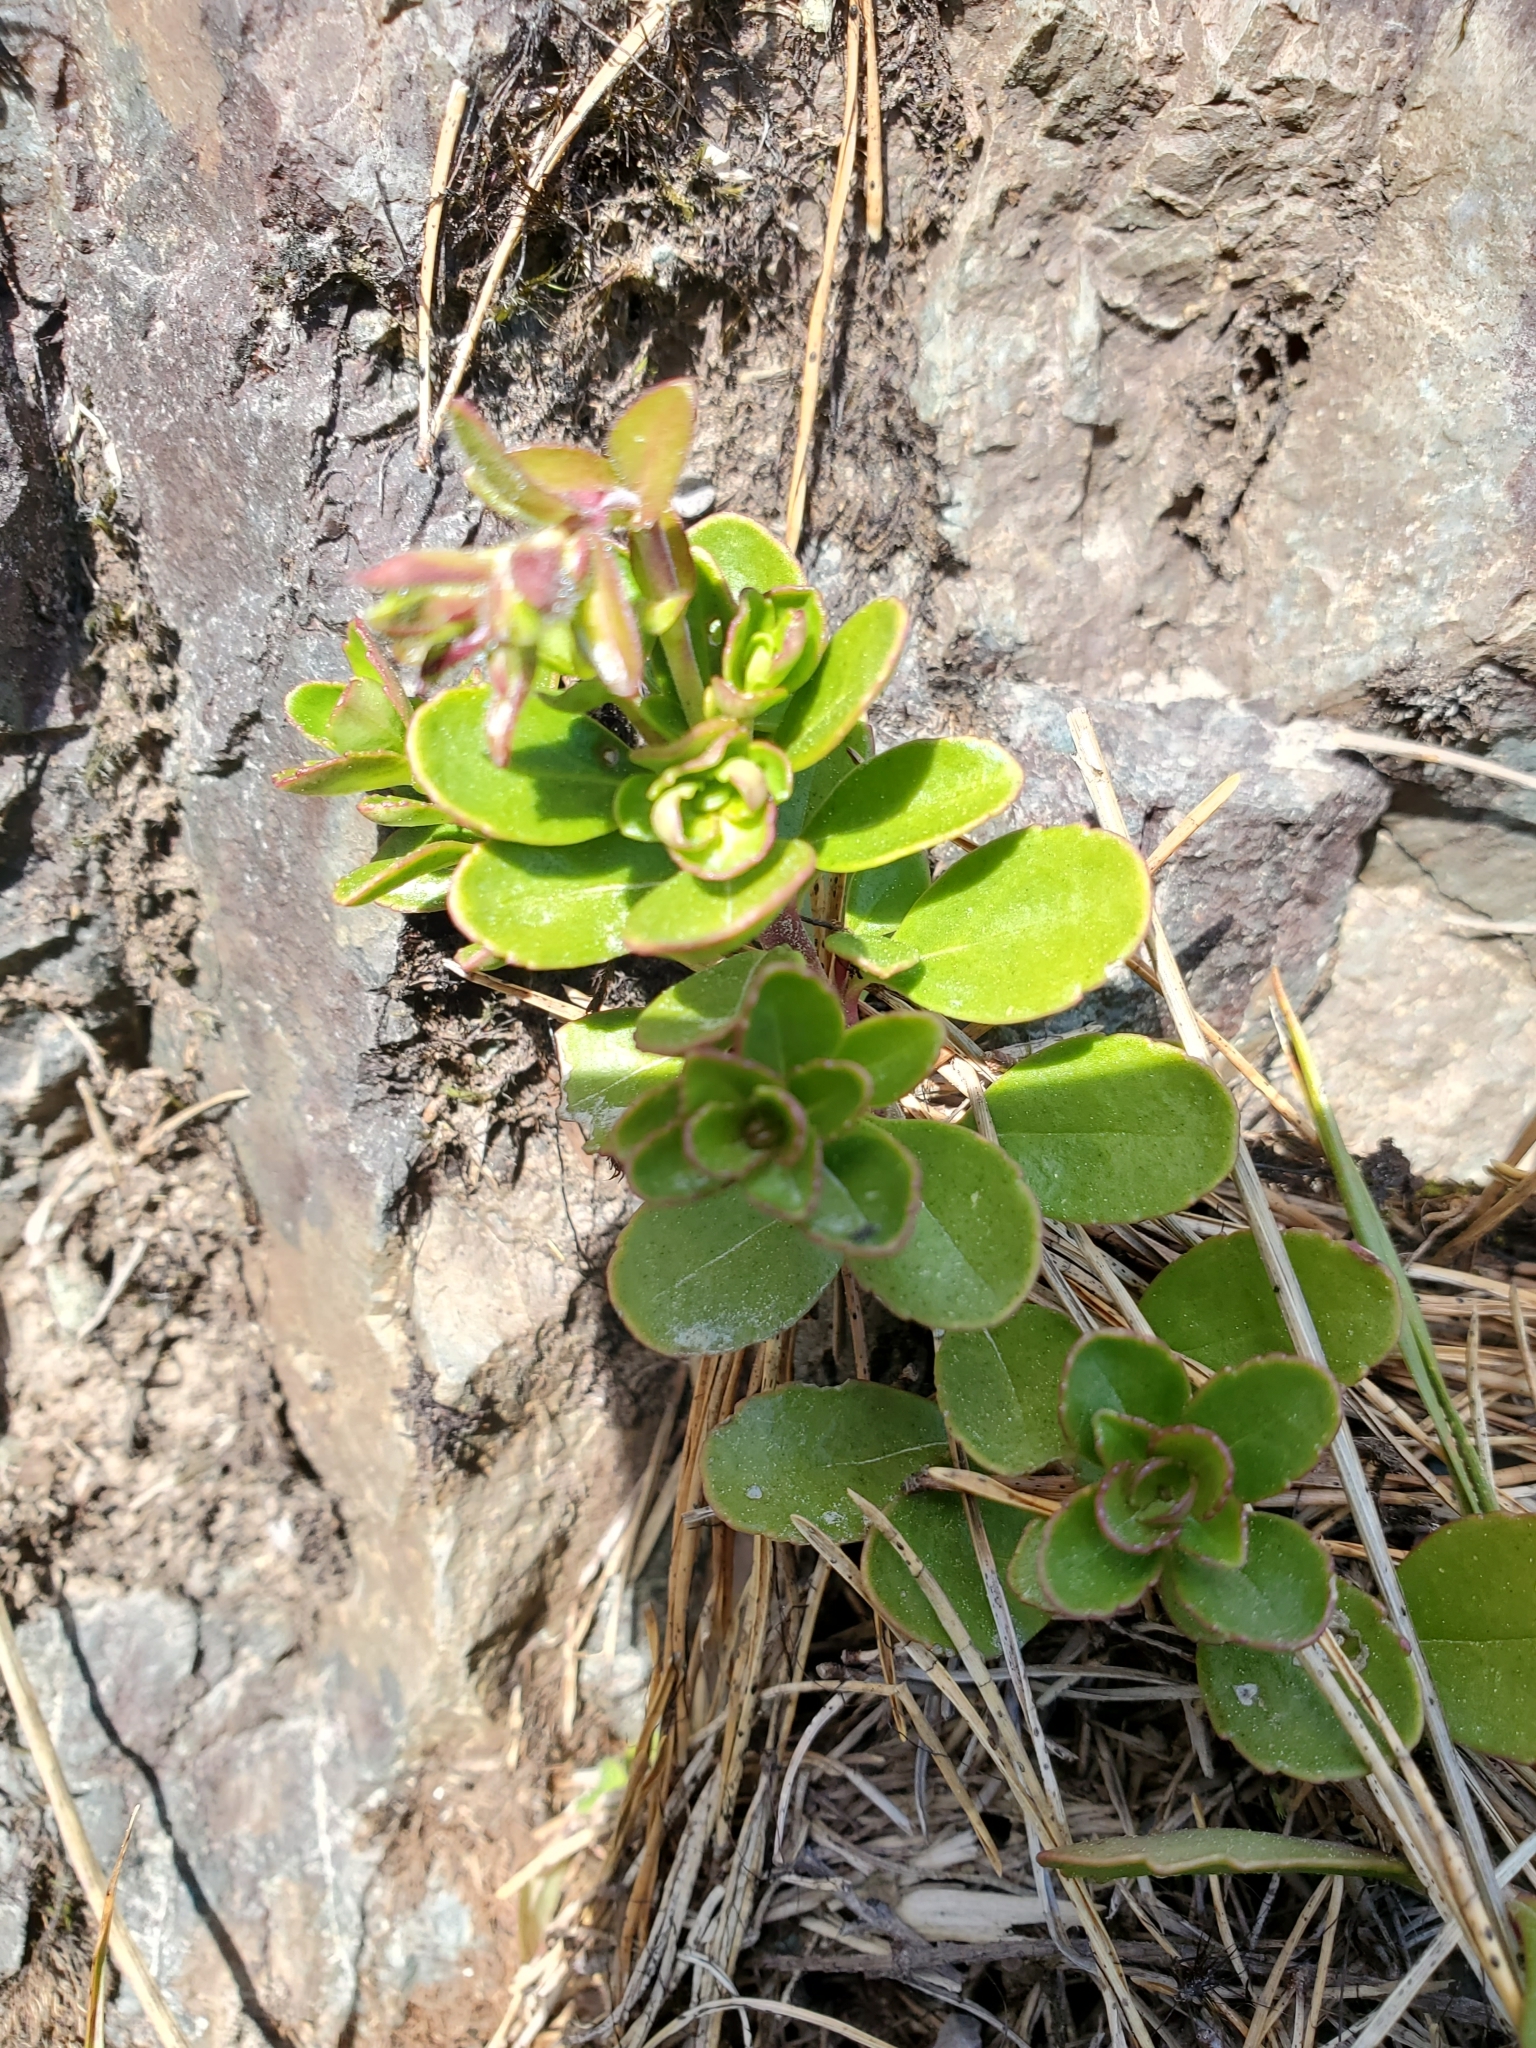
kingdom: Plantae
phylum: Tracheophyta
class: Magnoliopsida
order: Lamiales
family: Plantaginaceae
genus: Penstemon
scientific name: Penstemon davidsonii
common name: Davidson's penstemon
